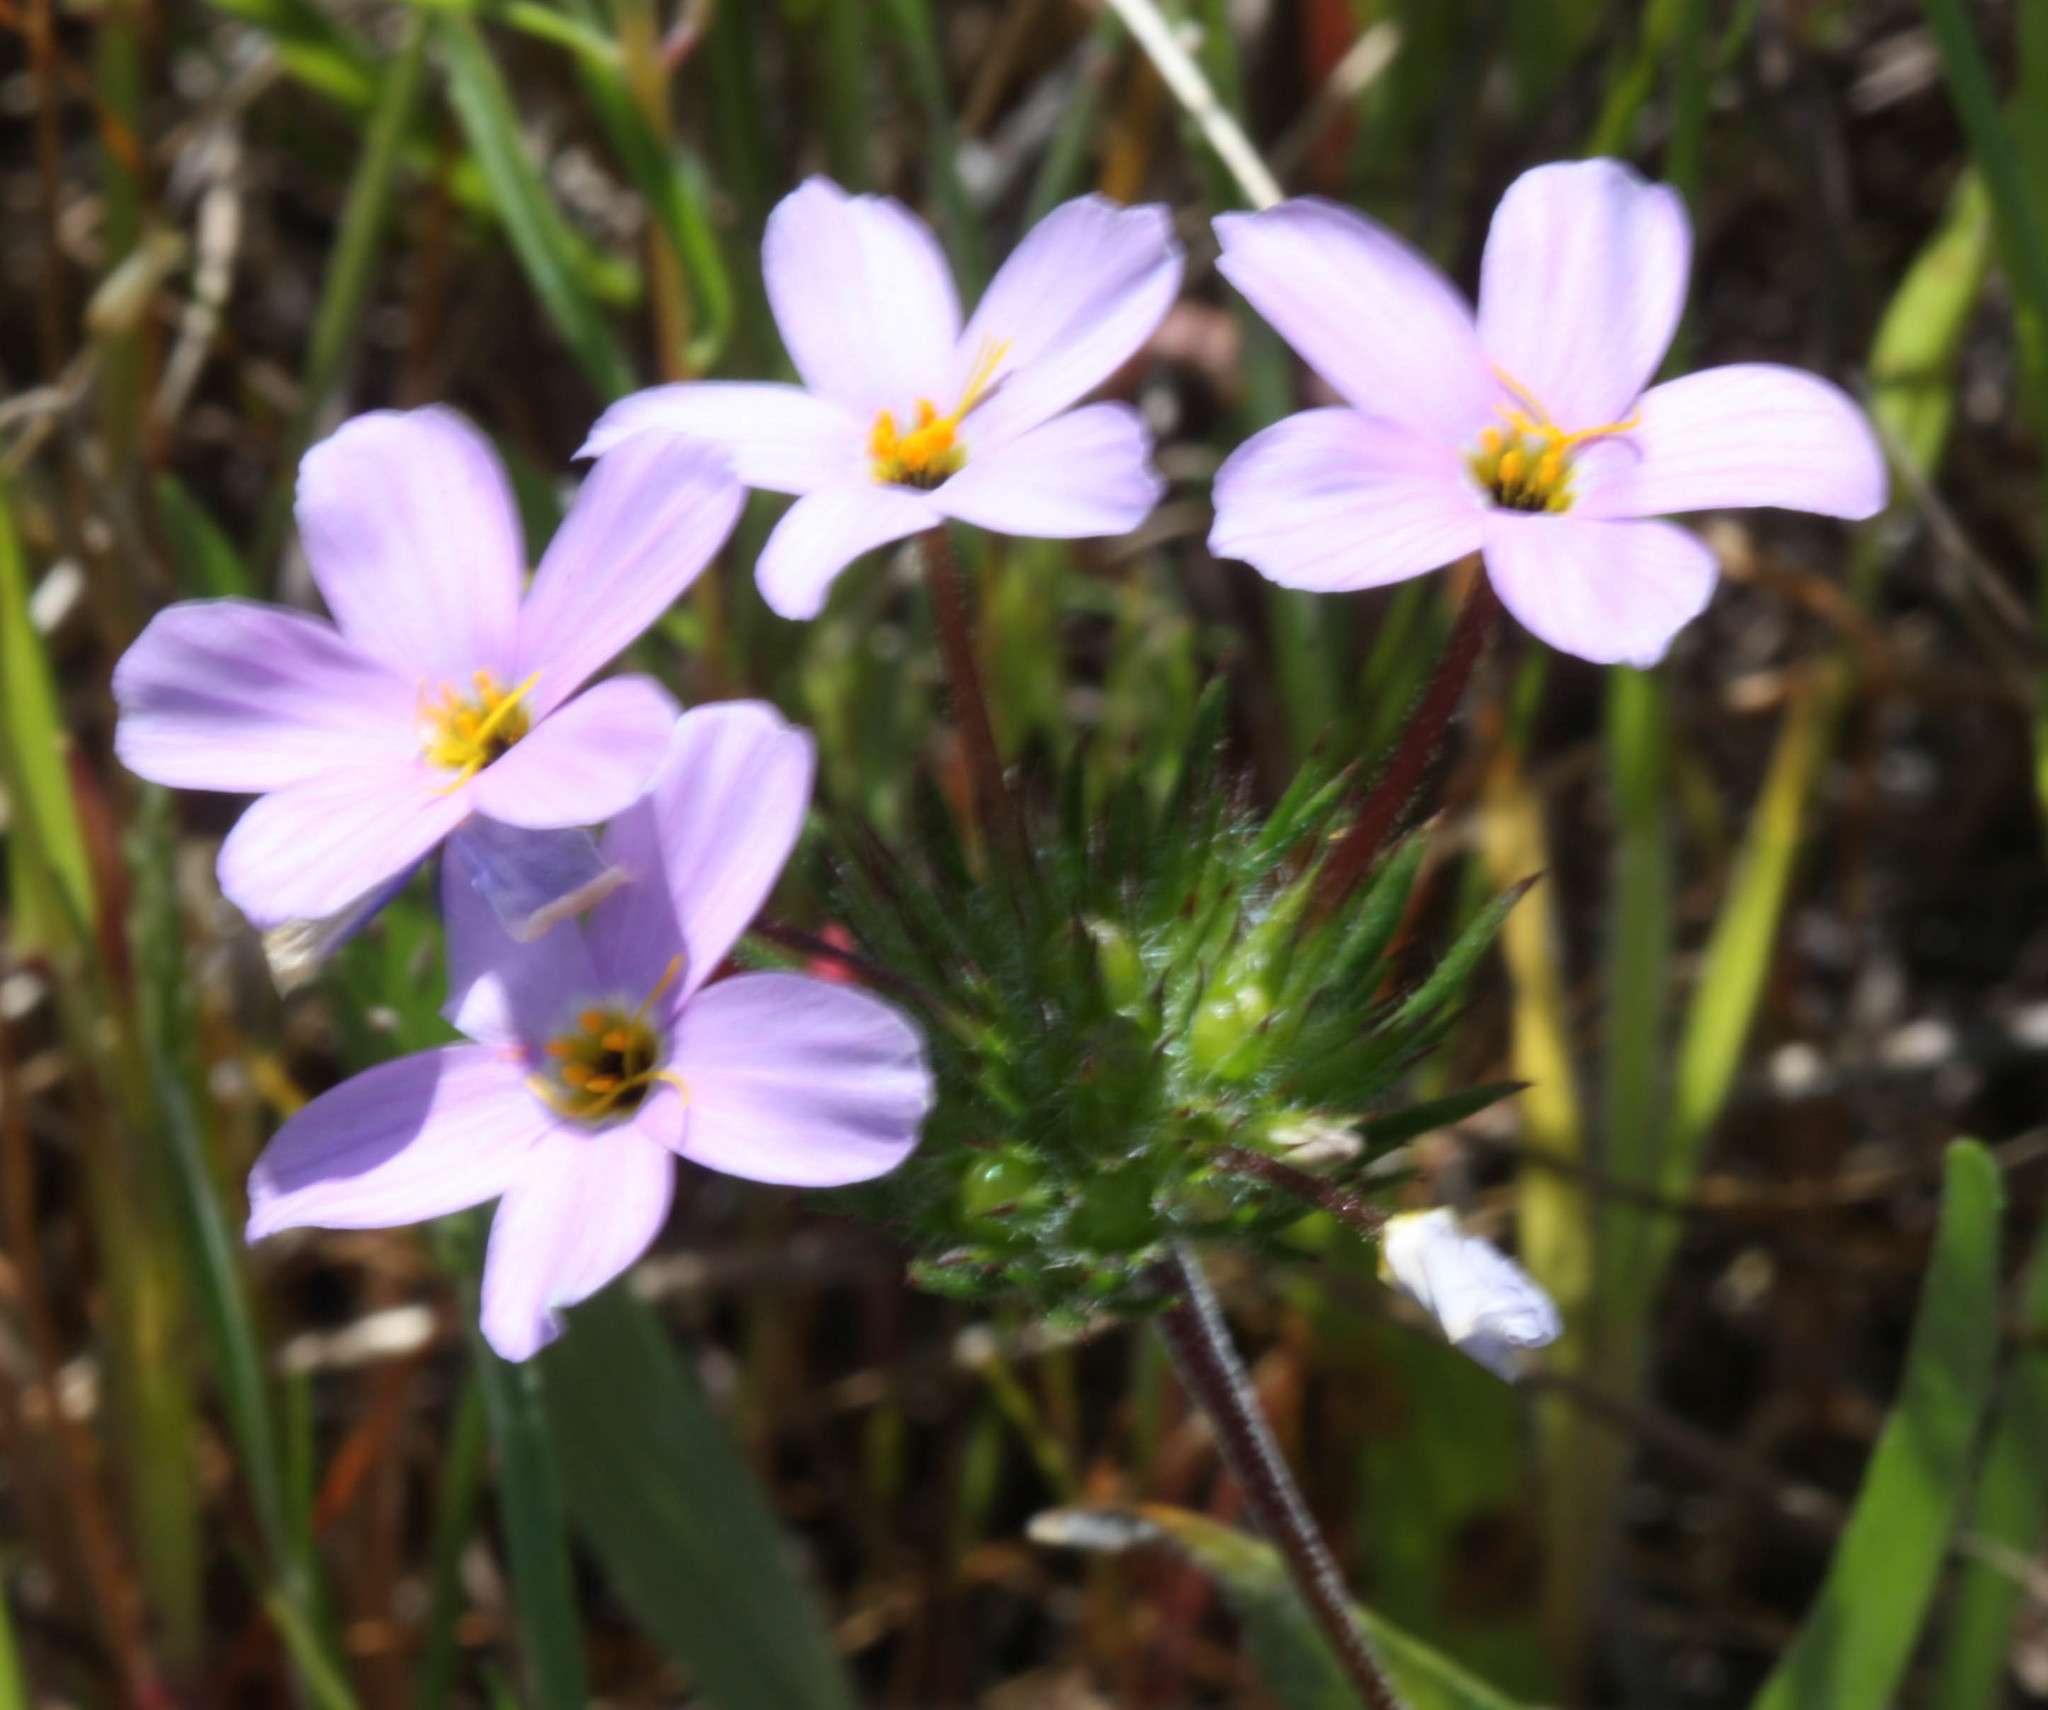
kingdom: Plantae
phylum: Tracheophyta
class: Magnoliopsida
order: Ericales
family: Polemoniaceae
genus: Leptosiphon
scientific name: Leptosiphon androsaceus
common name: False babystars
